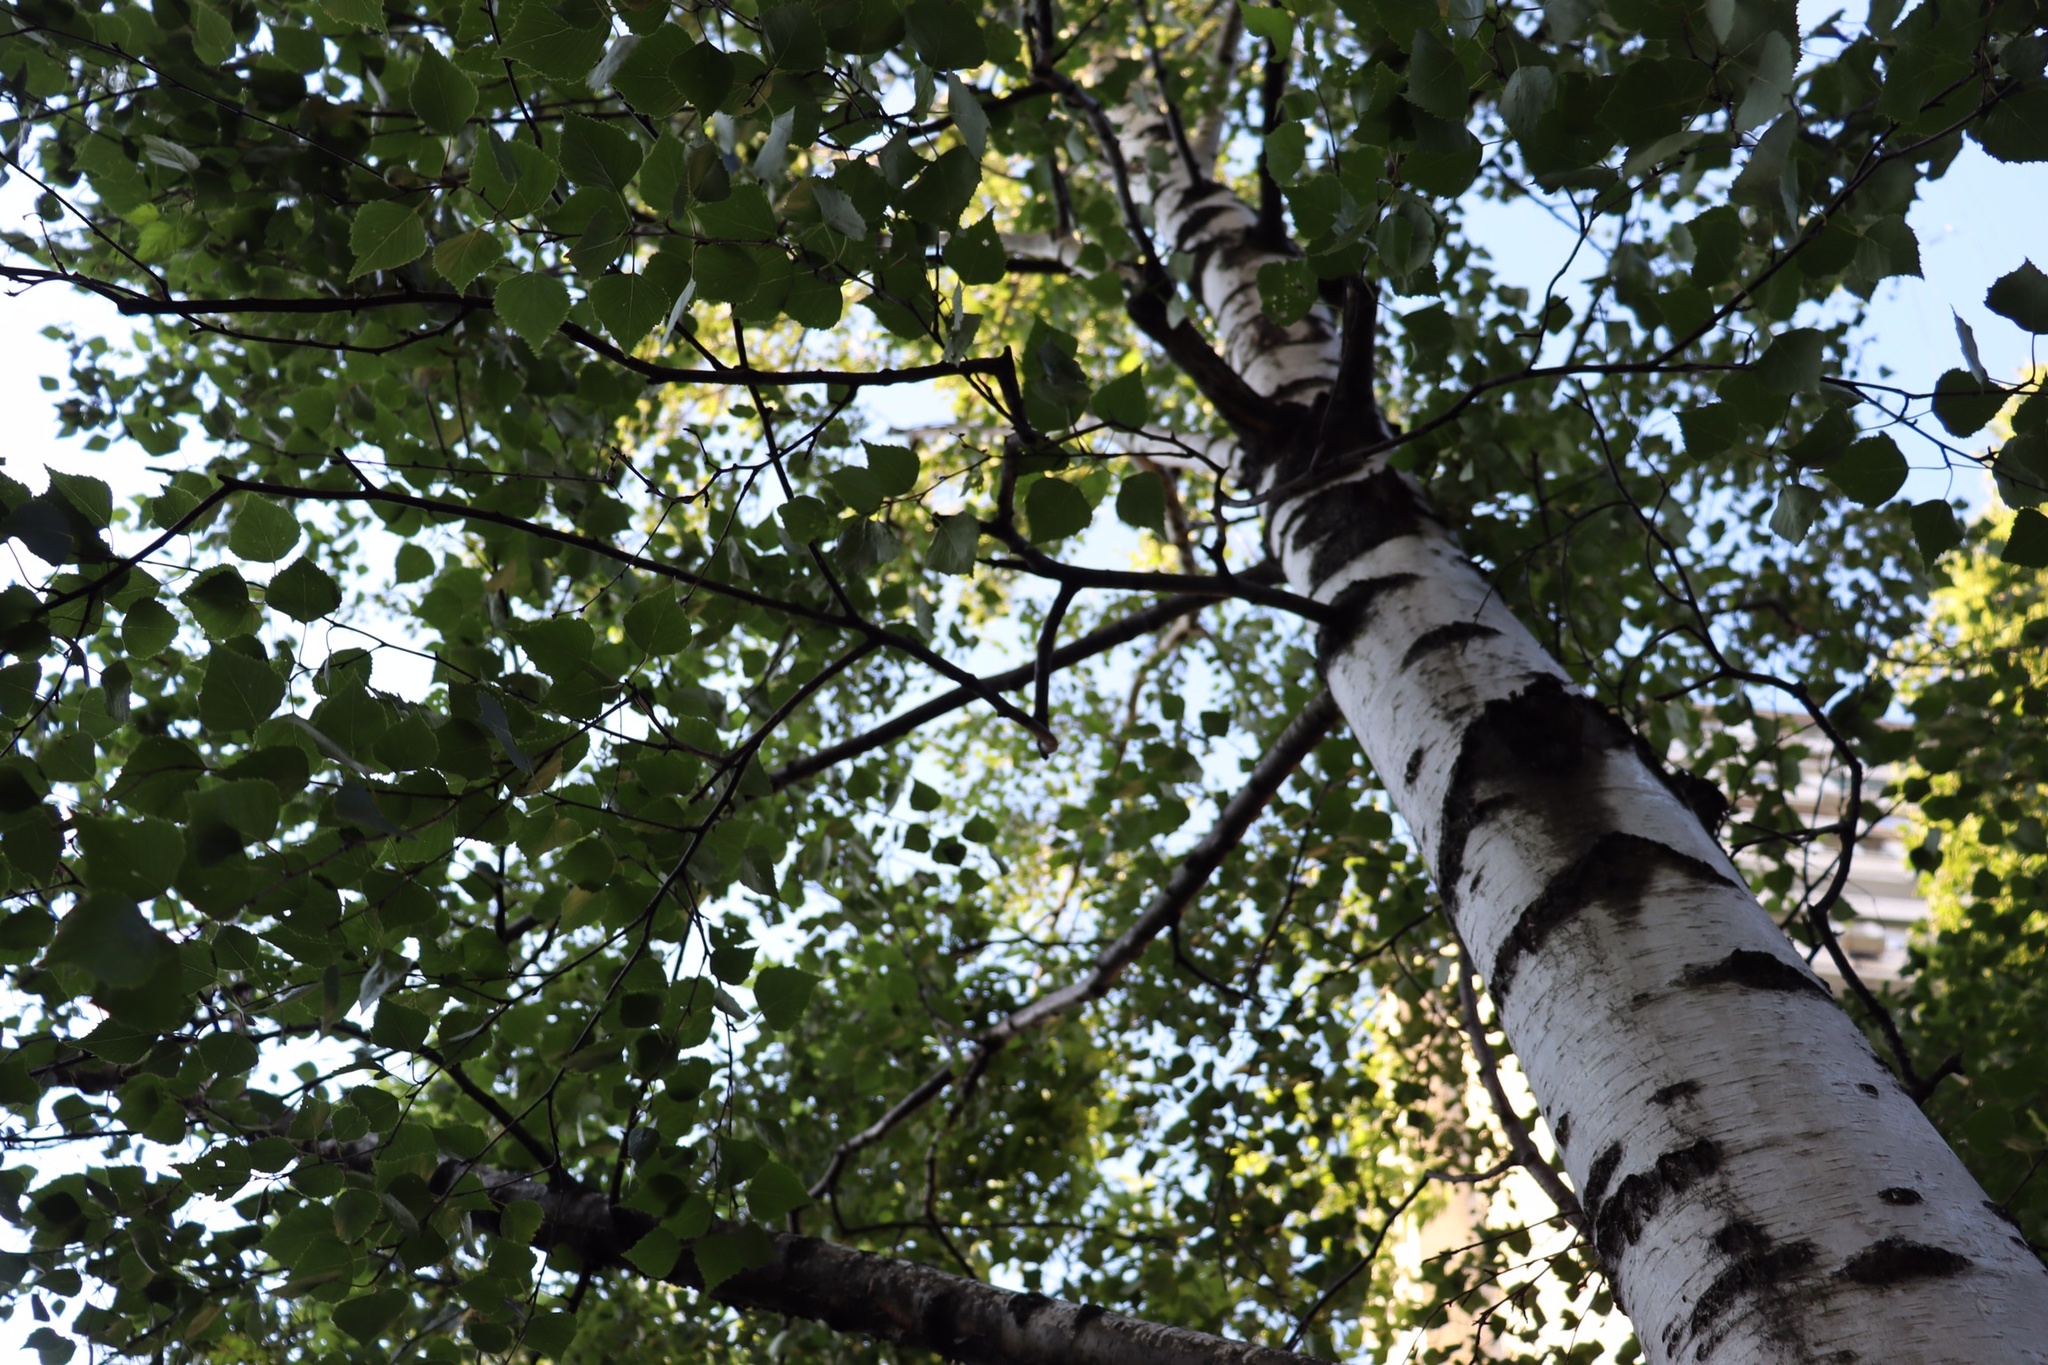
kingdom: Plantae
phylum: Tracheophyta
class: Magnoliopsida
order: Fagales
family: Betulaceae
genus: Betula
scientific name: Betula pendula
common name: Silver birch
